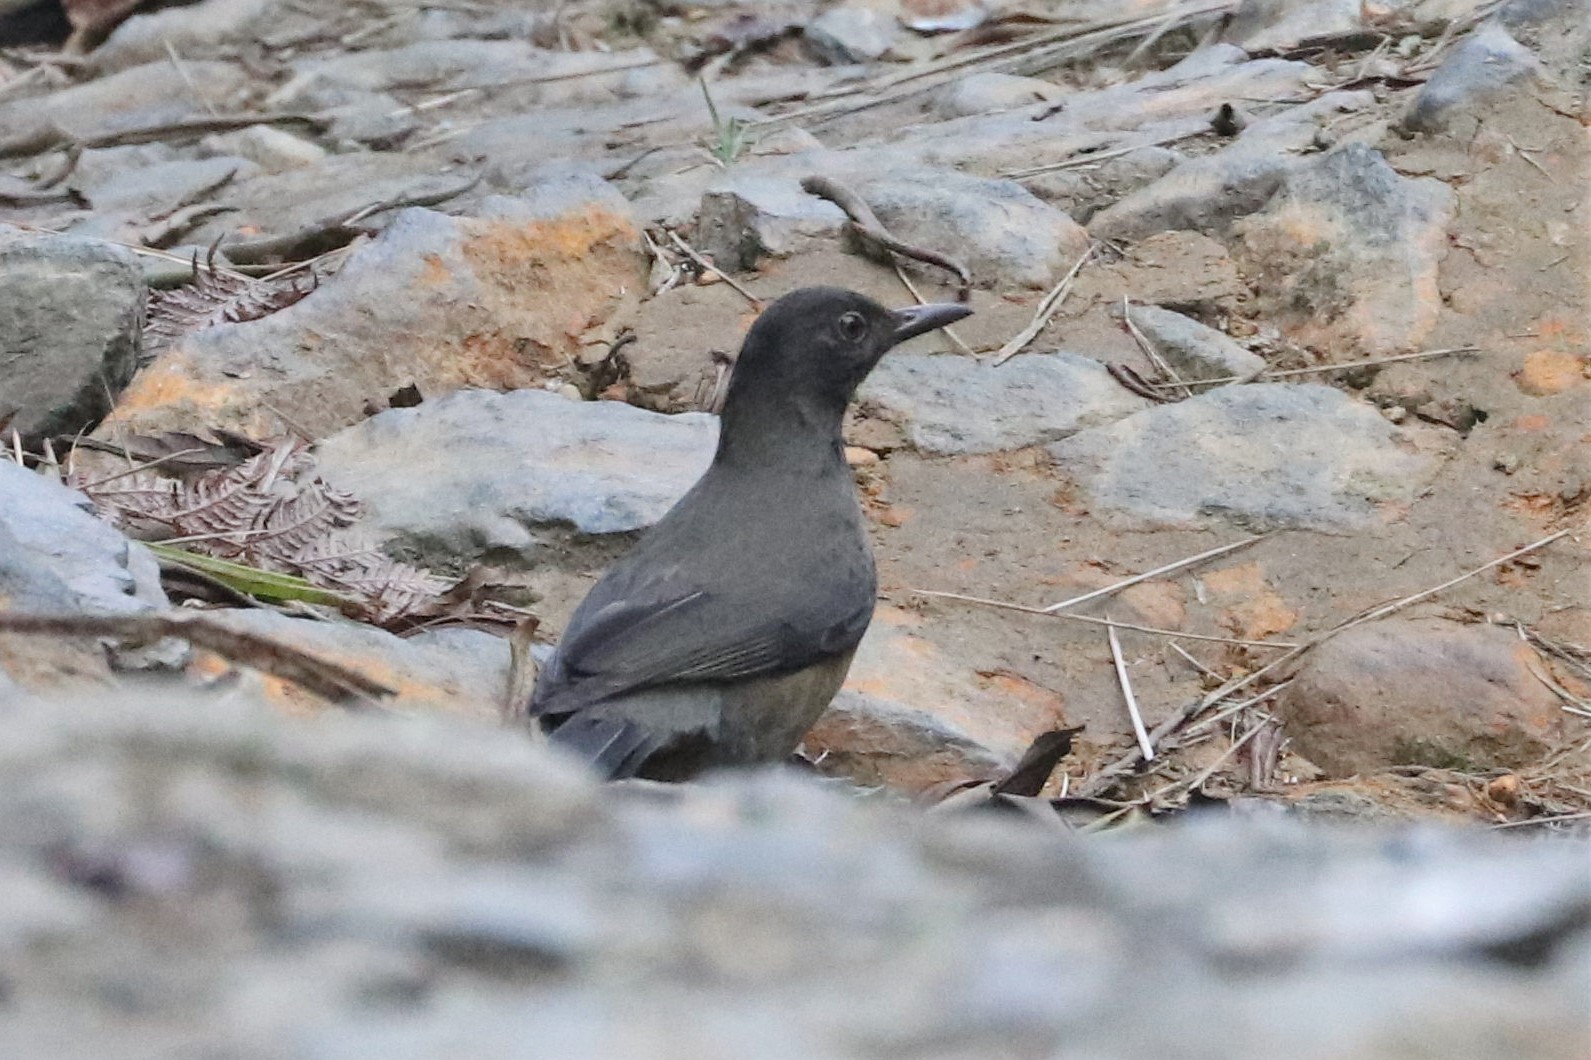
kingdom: Animalia
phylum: Chordata
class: Aves
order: Passeriformes
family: Turdidae
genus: Turdus
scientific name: Turdus olivater
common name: Black-hooded thrush
